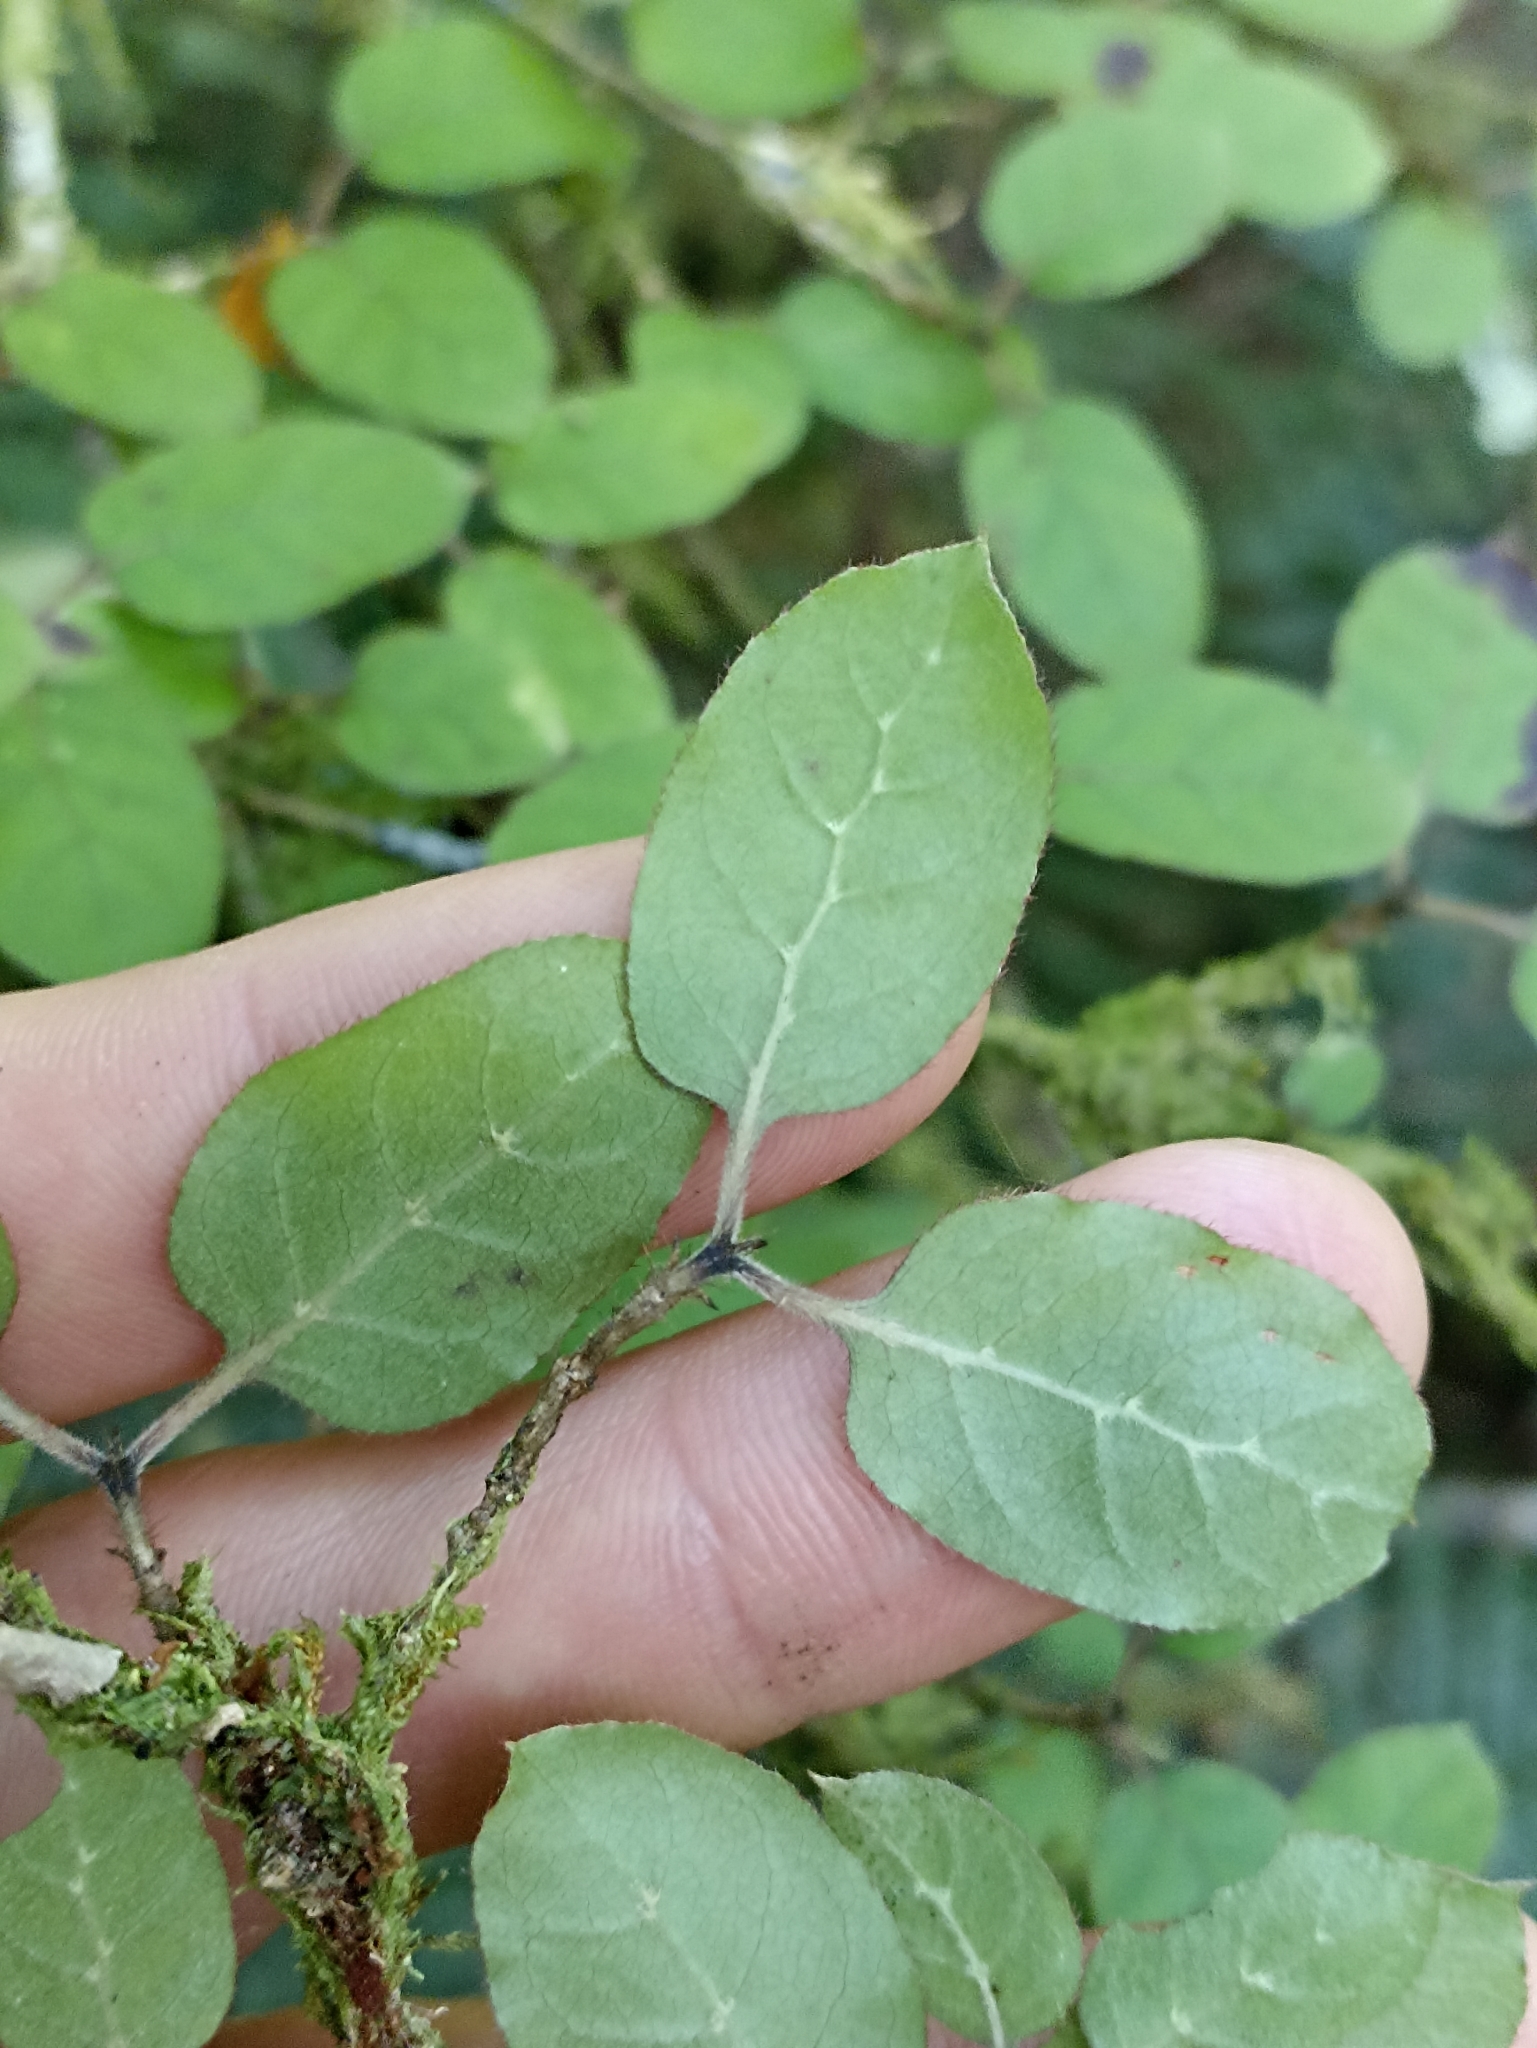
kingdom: Plantae
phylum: Tracheophyta
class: Magnoliopsida
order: Gentianales
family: Rubiaceae
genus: Coprosma
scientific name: Coprosma rotundifolia
